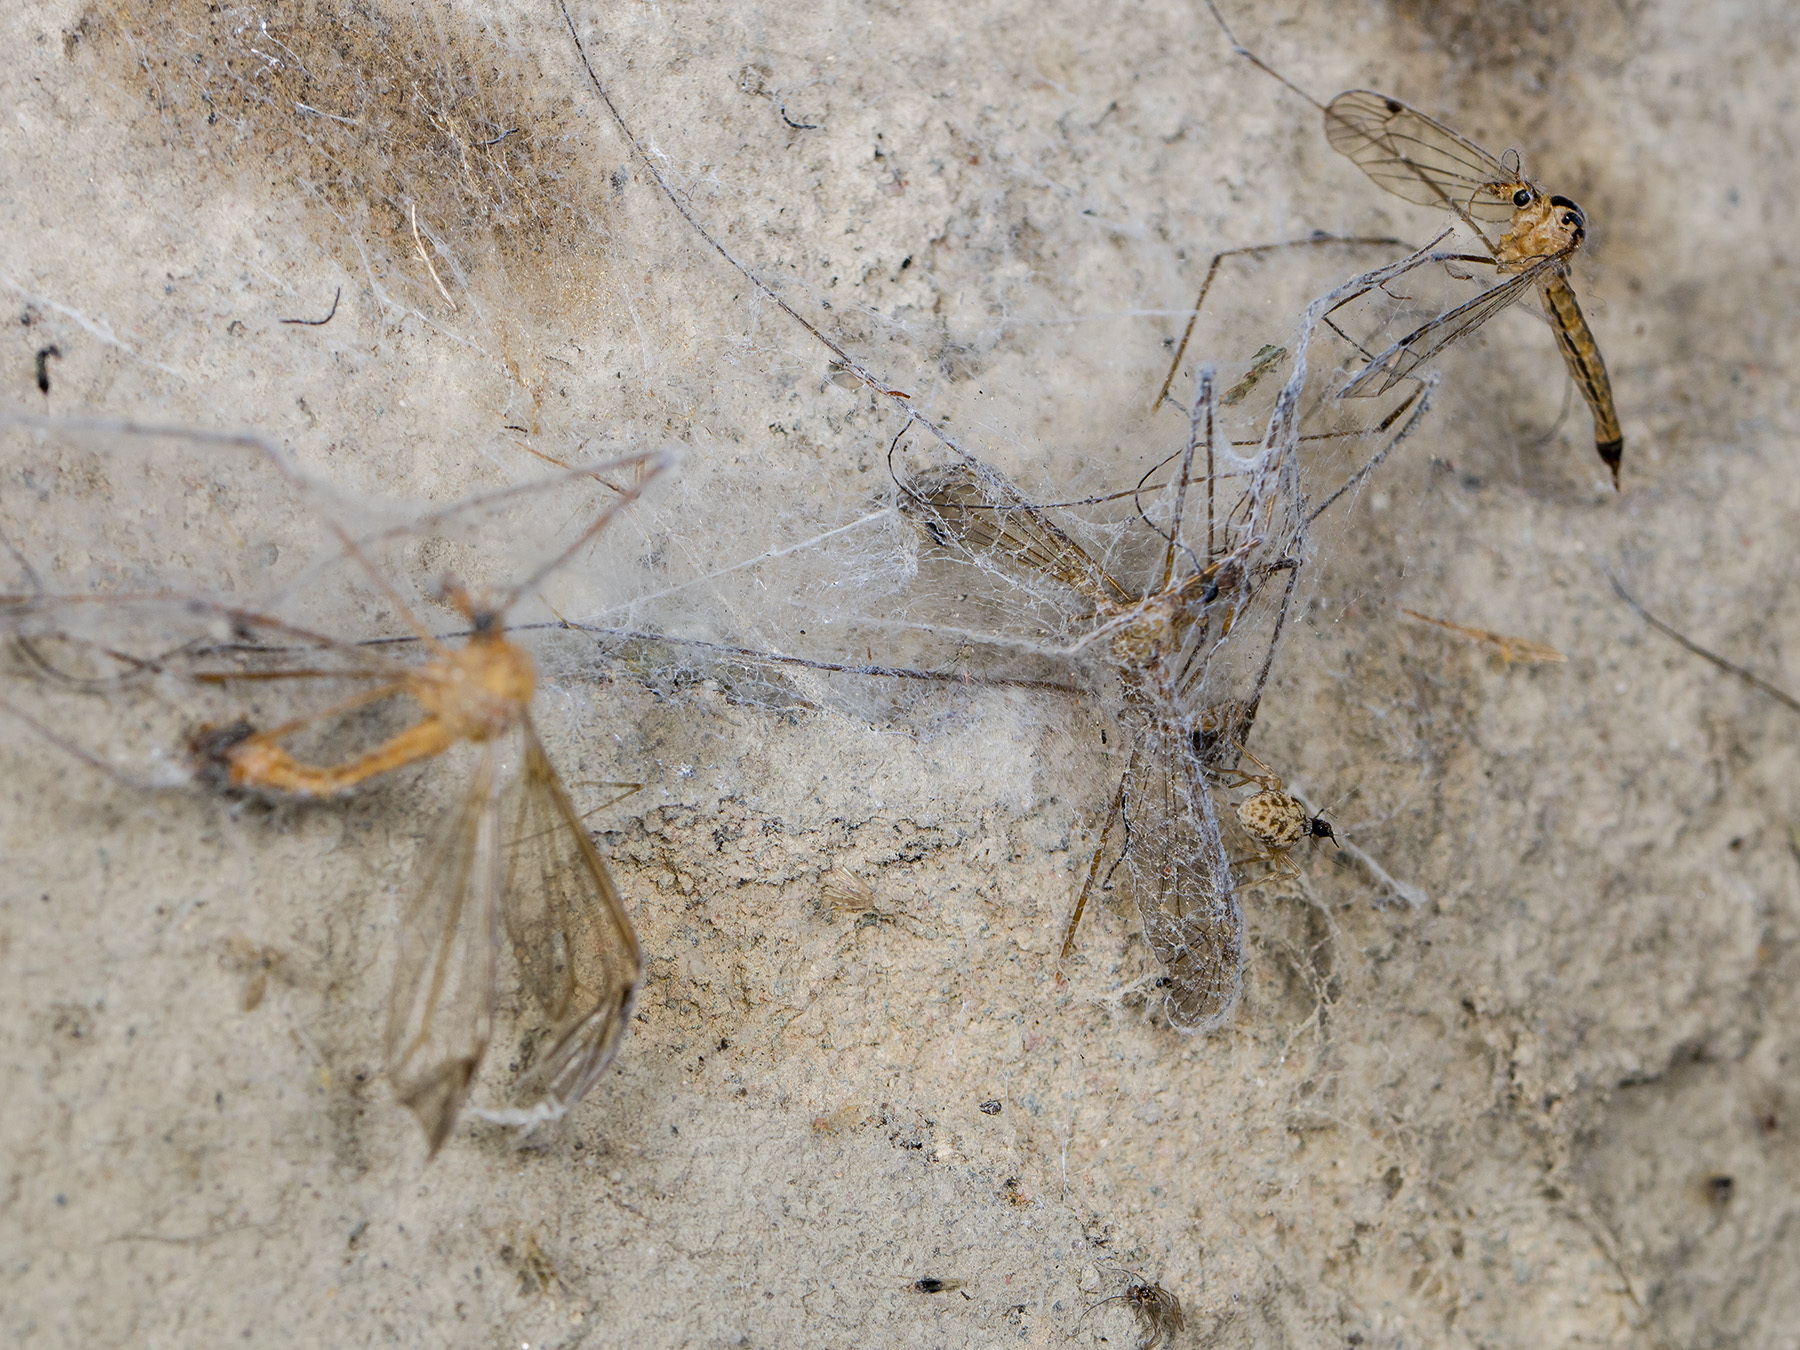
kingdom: Animalia
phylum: Arthropoda
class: Arachnida
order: Araneae
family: Dictynidae
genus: Dictynomorpha
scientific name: Dictynomorpha strandi
